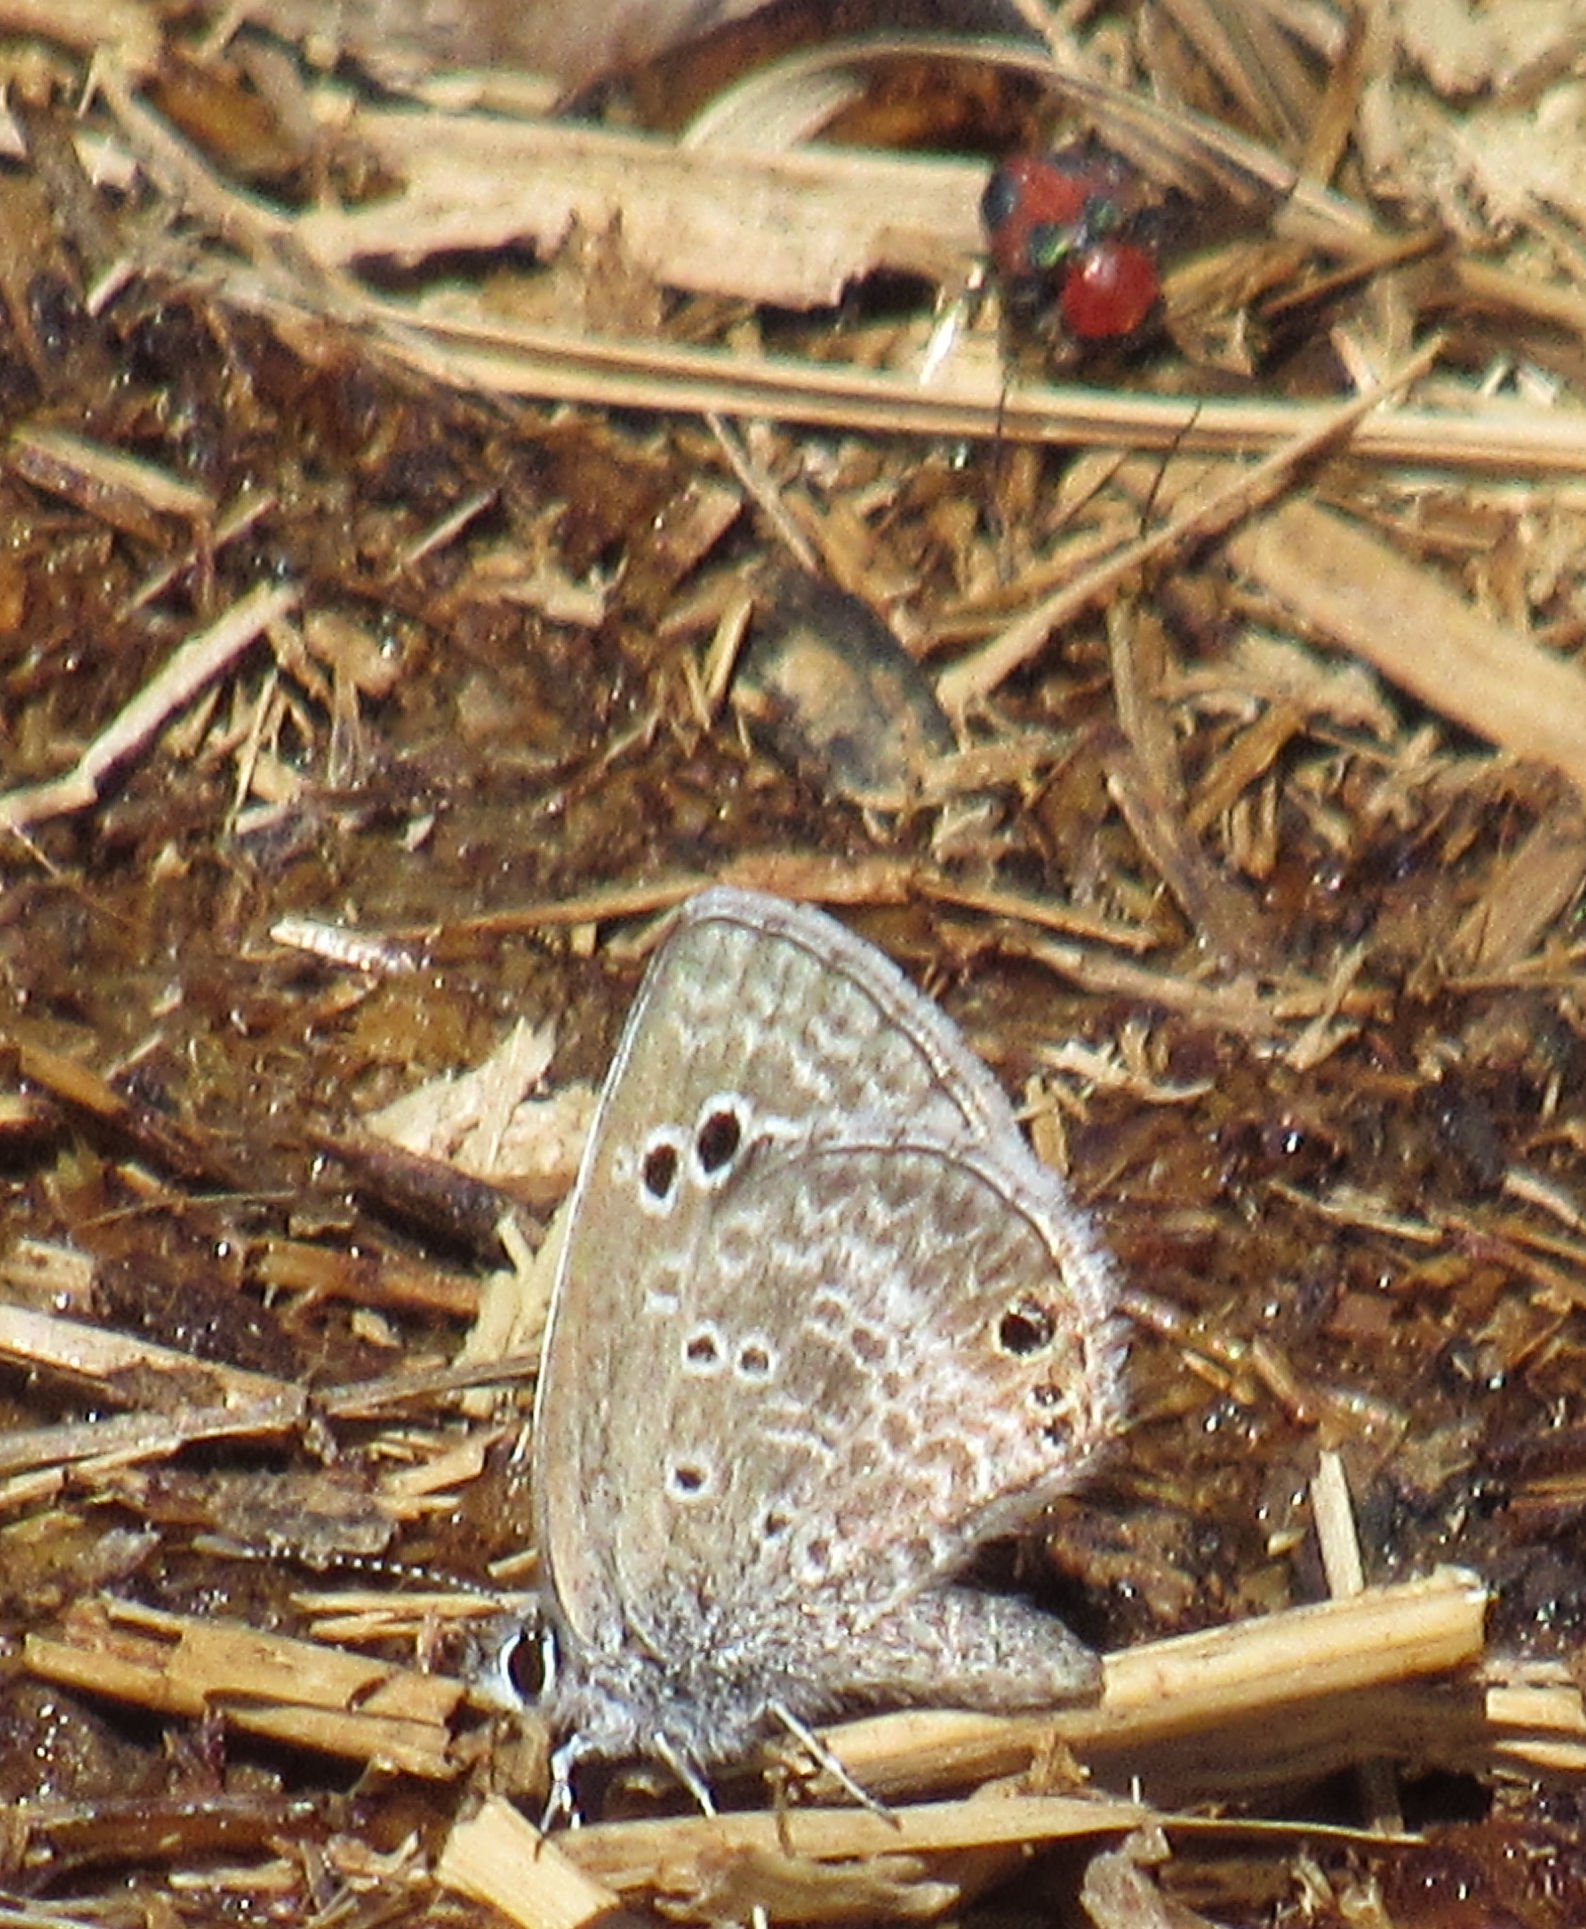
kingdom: Animalia
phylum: Arthropoda
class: Insecta
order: Coleoptera
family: Melyridae
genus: Collops
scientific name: Collops
